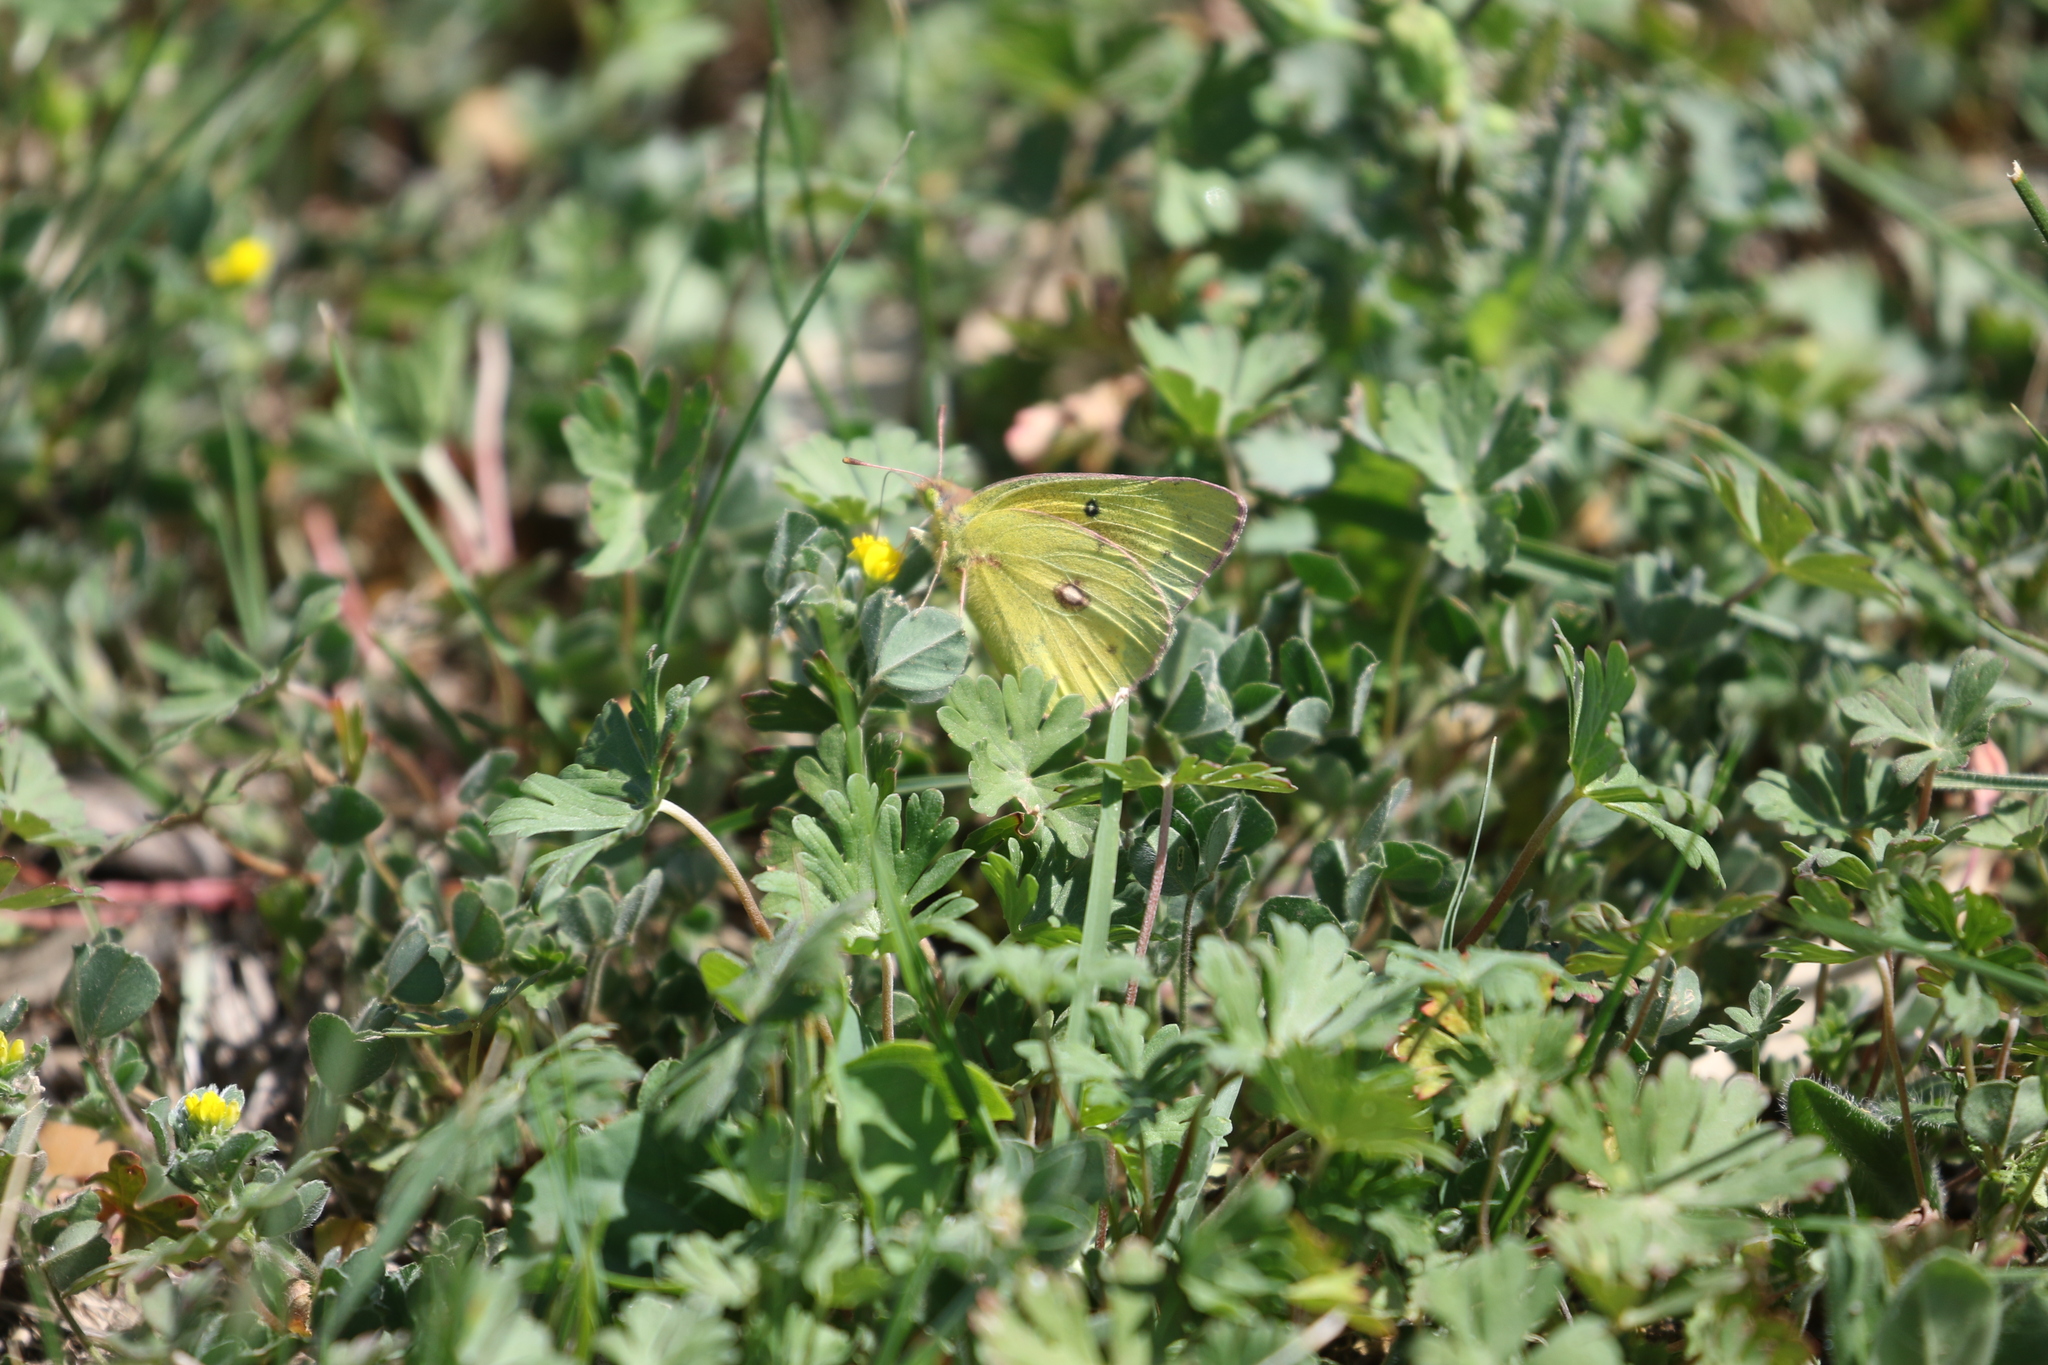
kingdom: Animalia
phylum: Arthropoda
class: Insecta
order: Lepidoptera
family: Pieridae
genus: Colias
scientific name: Colias eurytheme
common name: Alfalfa butterfly
